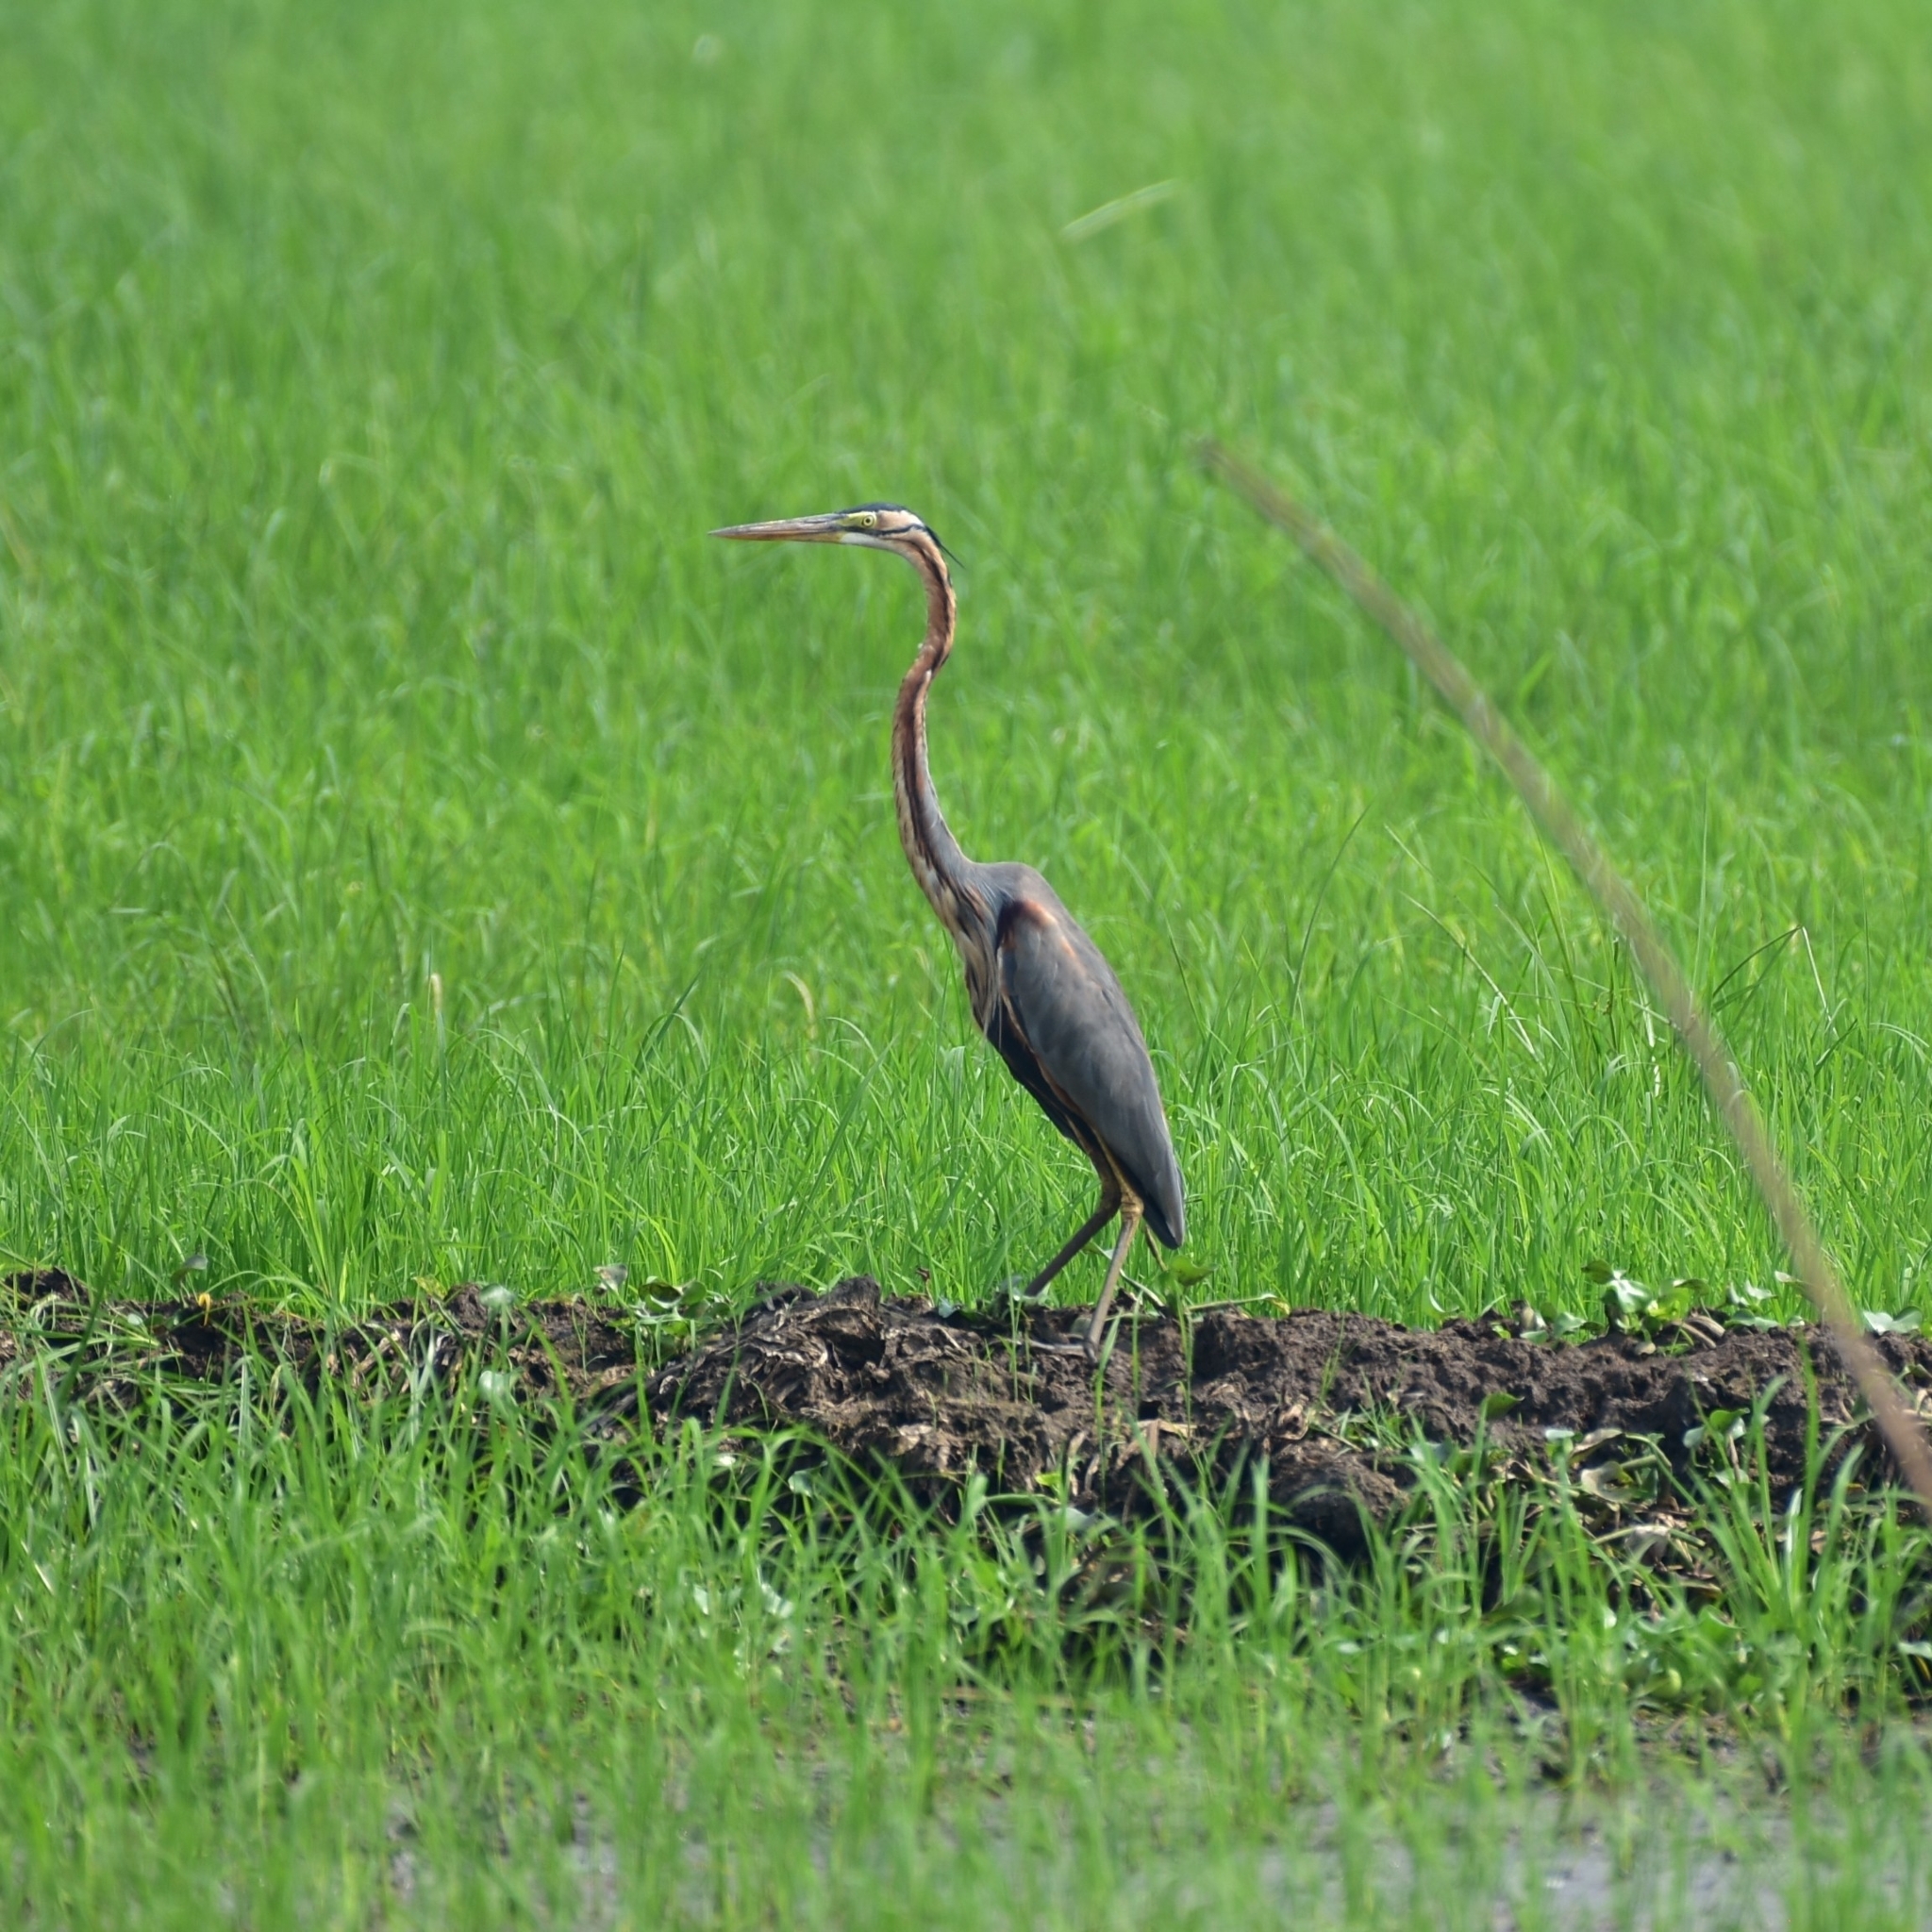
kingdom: Animalia
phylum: Chordata
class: Aves
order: Pelecaniformes
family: Ardeidae
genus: Ardea
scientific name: Ardea purpurea
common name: Purple heron
